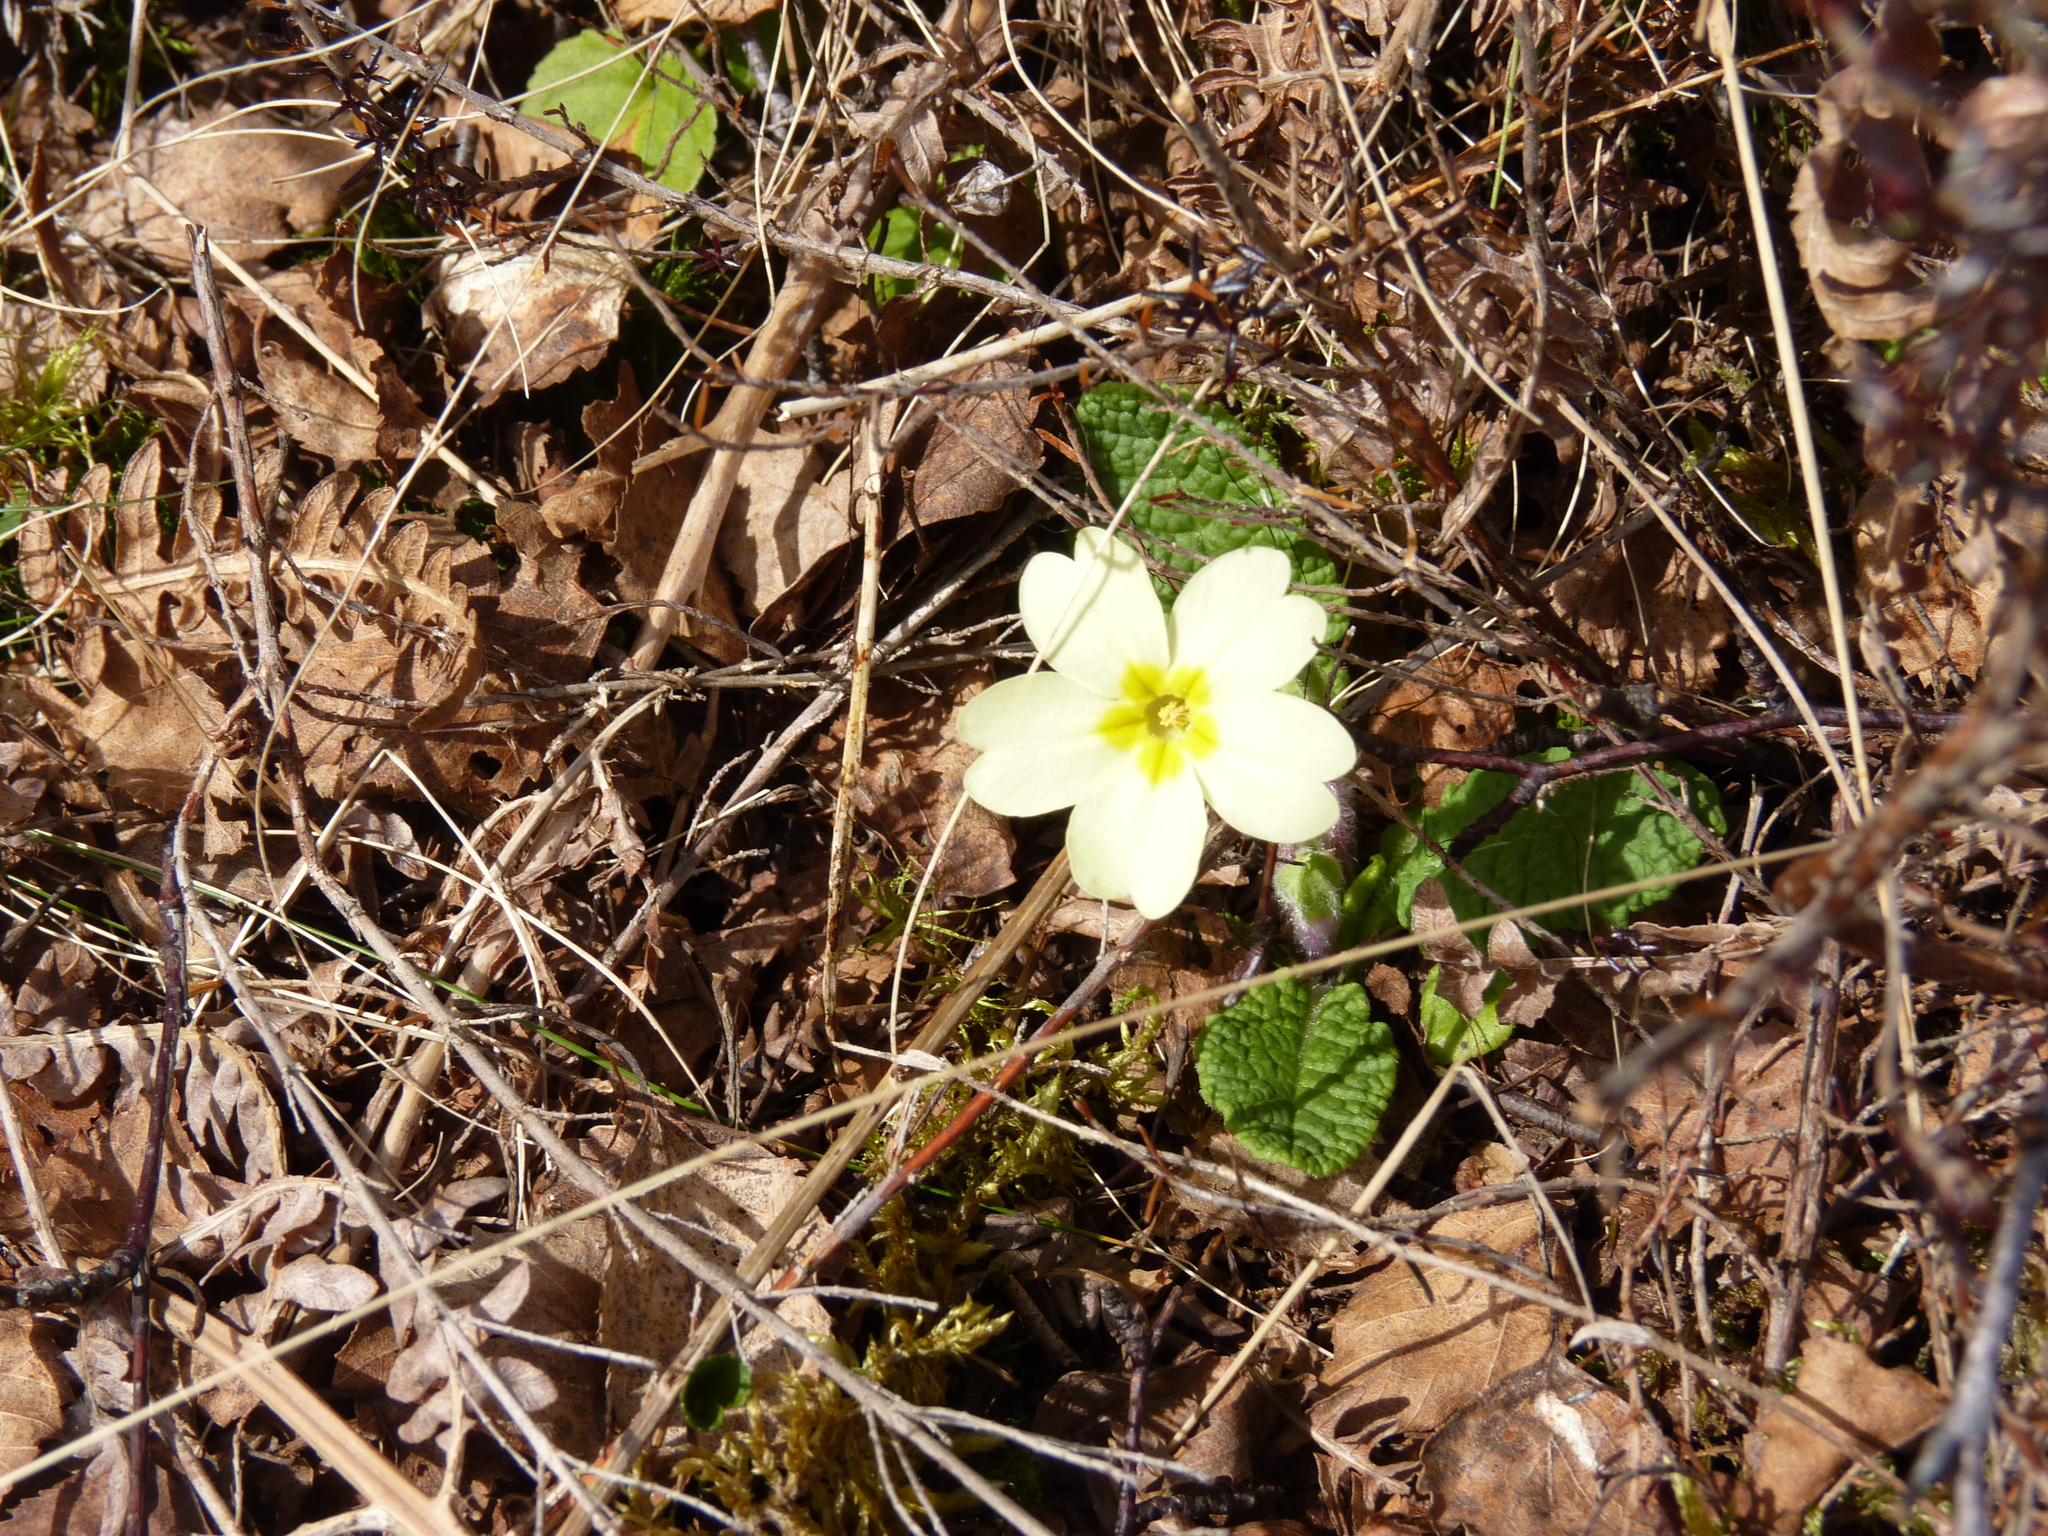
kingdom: Plantae
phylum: Tracheophyta
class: Magnoliopsida
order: Ericales
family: Primulaceae
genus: Primula
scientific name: Primula vulgaris
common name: Primrose
